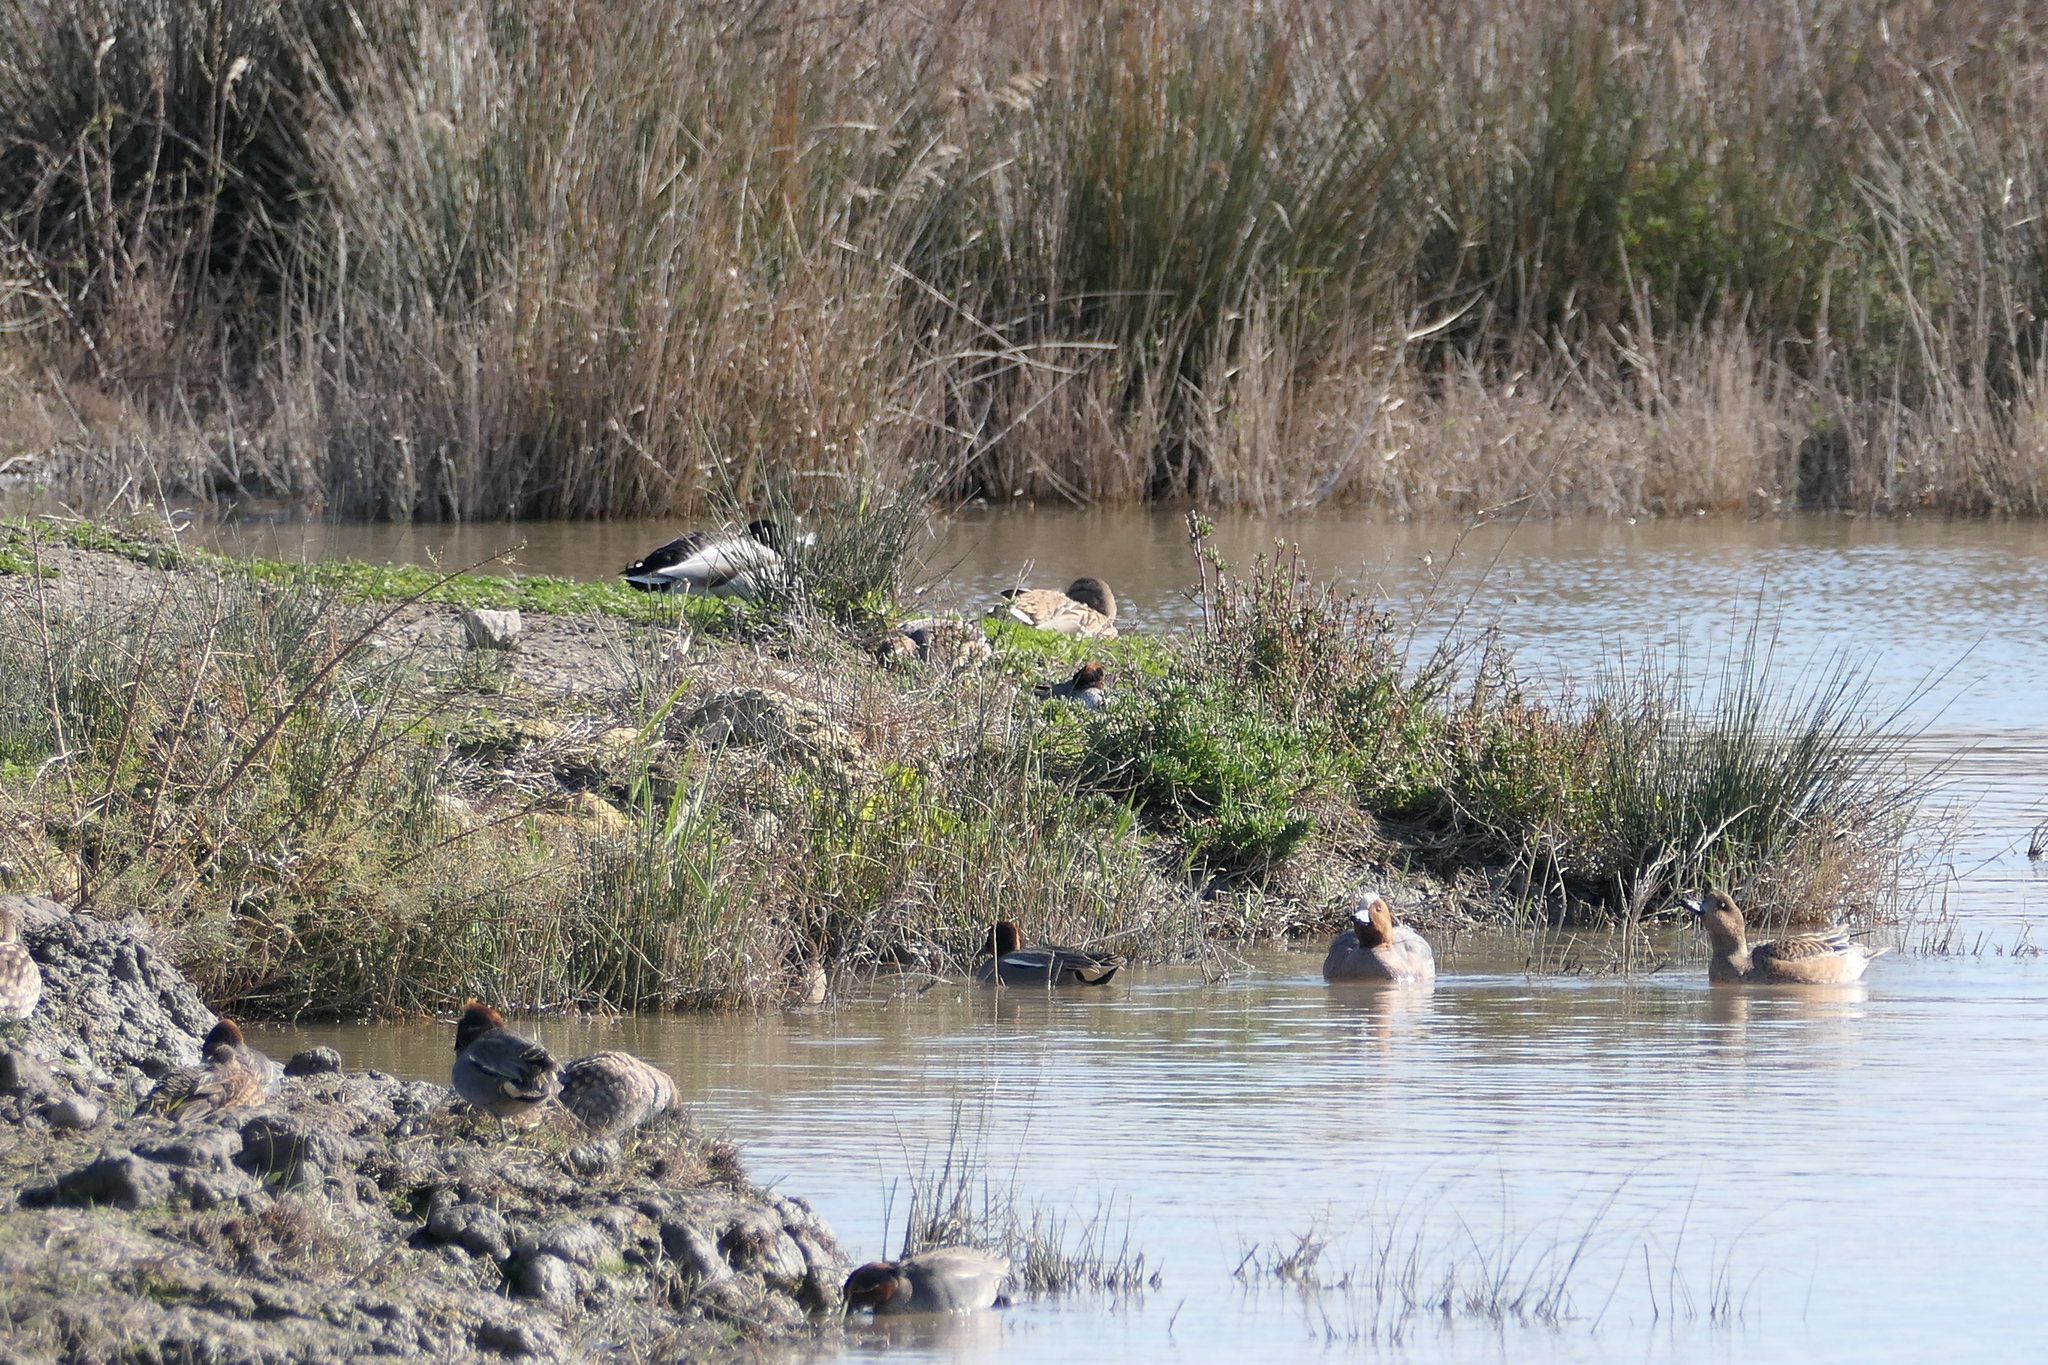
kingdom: Animalia
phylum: Chordata
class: Aves
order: Anseriformes
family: Anatidae
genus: Mareca
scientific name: Mareca penelope
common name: Eurasian wigeon
